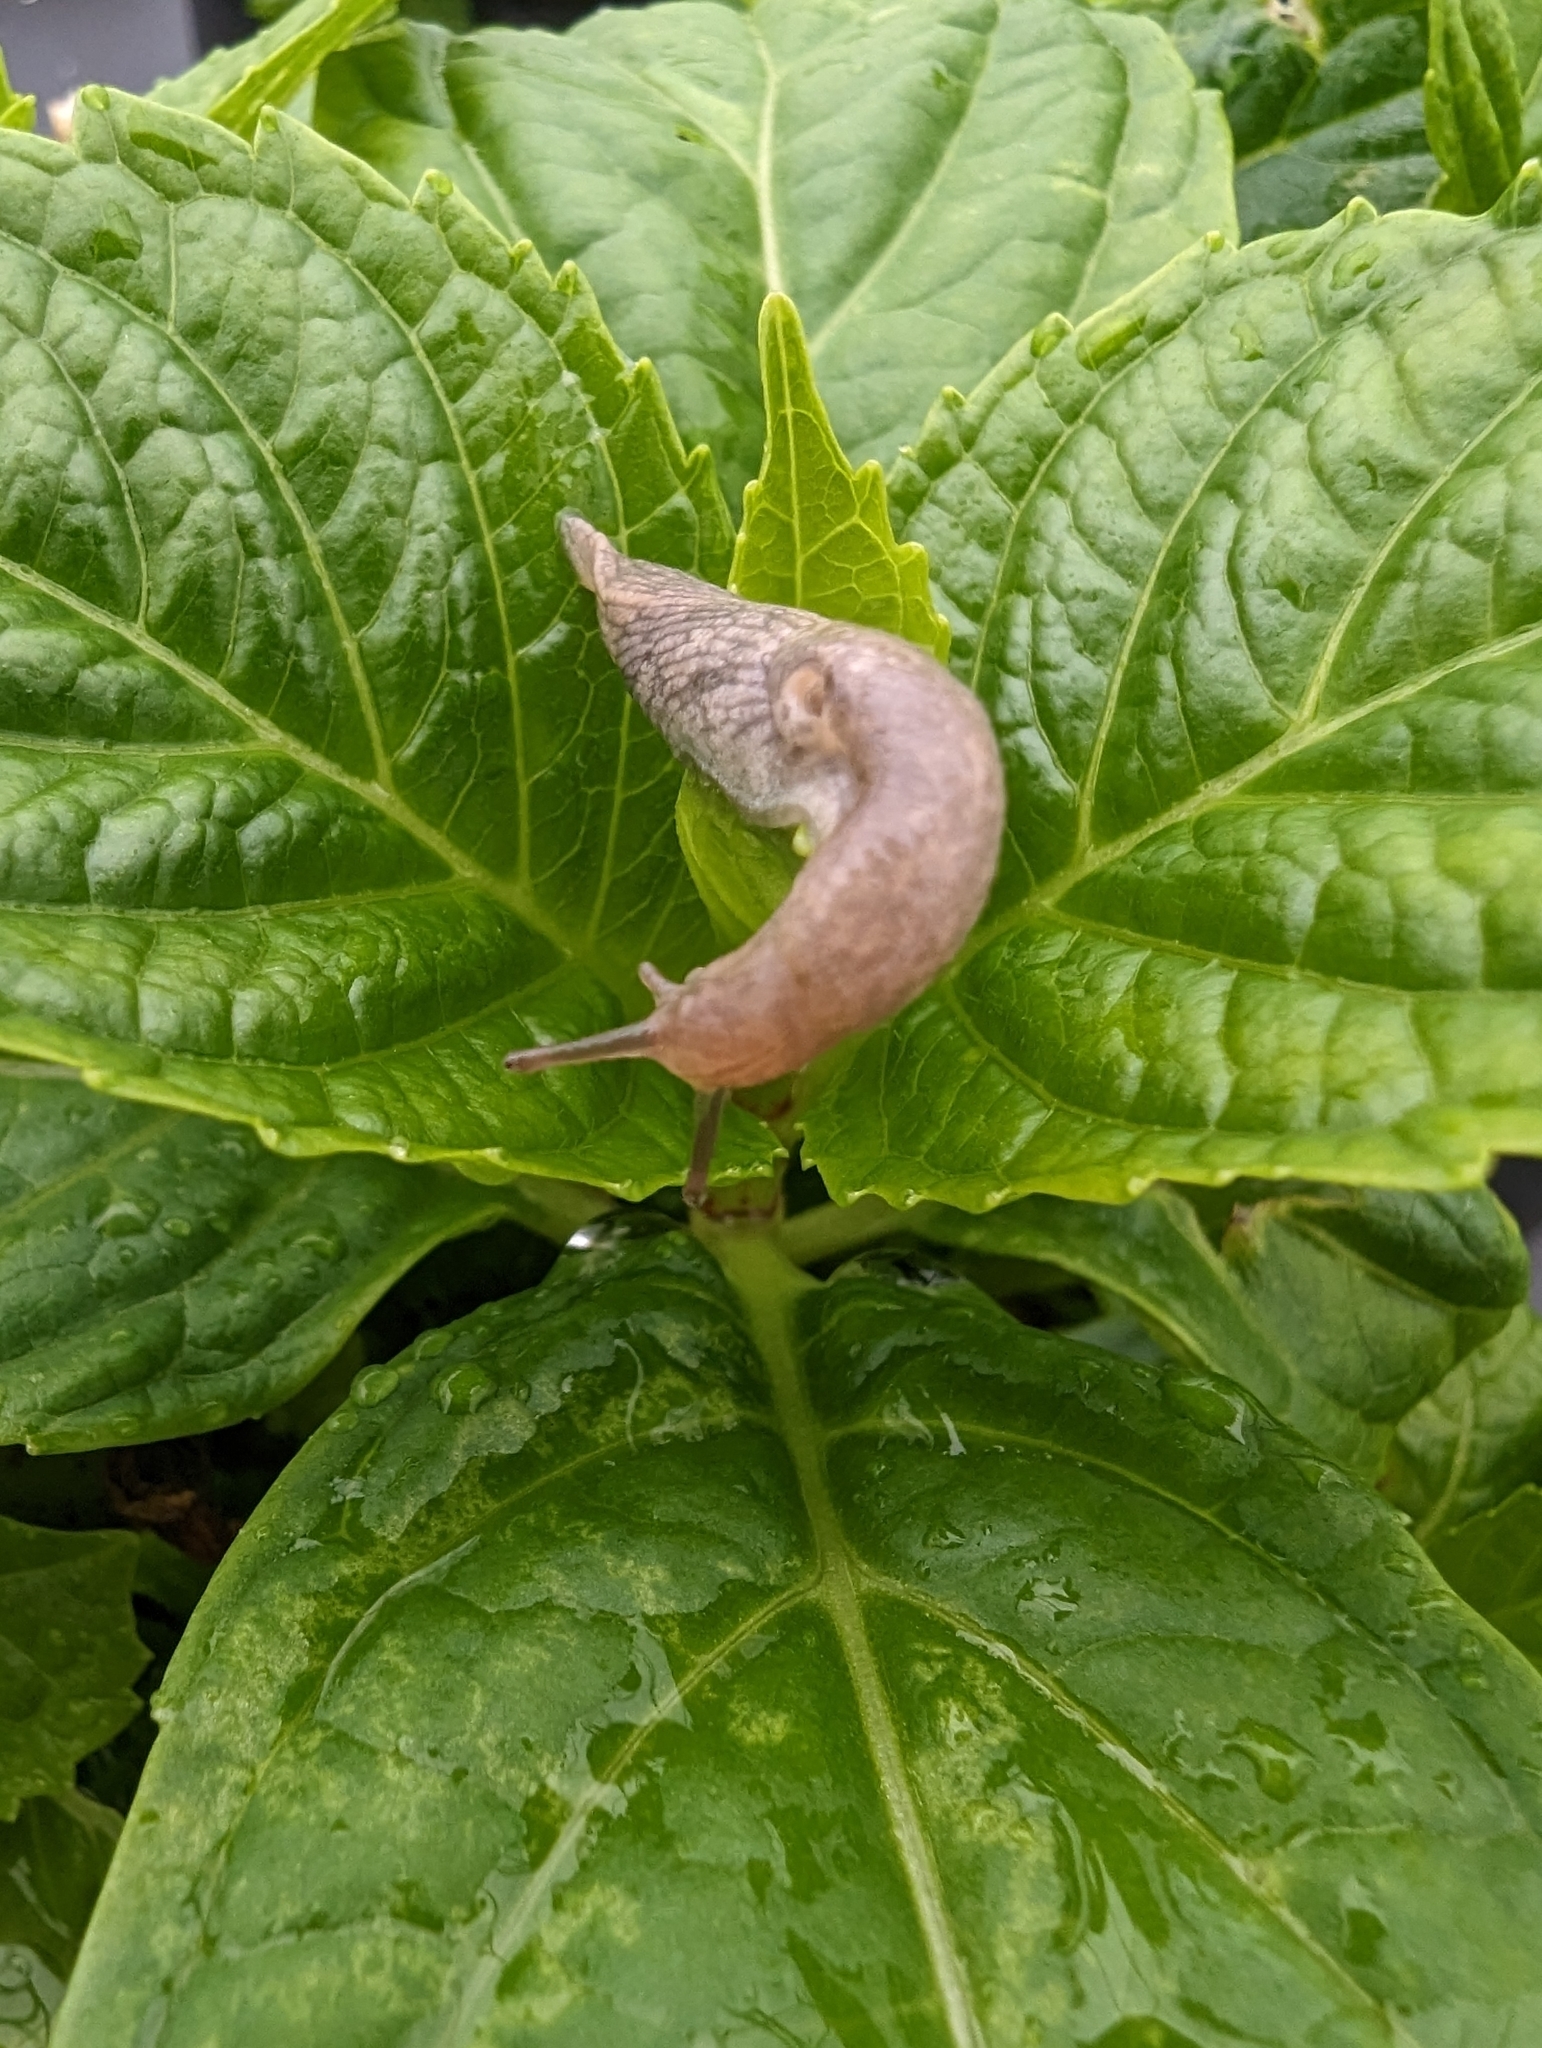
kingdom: Animalia
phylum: Mollusca
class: Gastropoda
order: Stylommatophora
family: Agriolimacidae
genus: Deroceras
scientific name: Deroceras reticulatum
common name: Gray field slug
